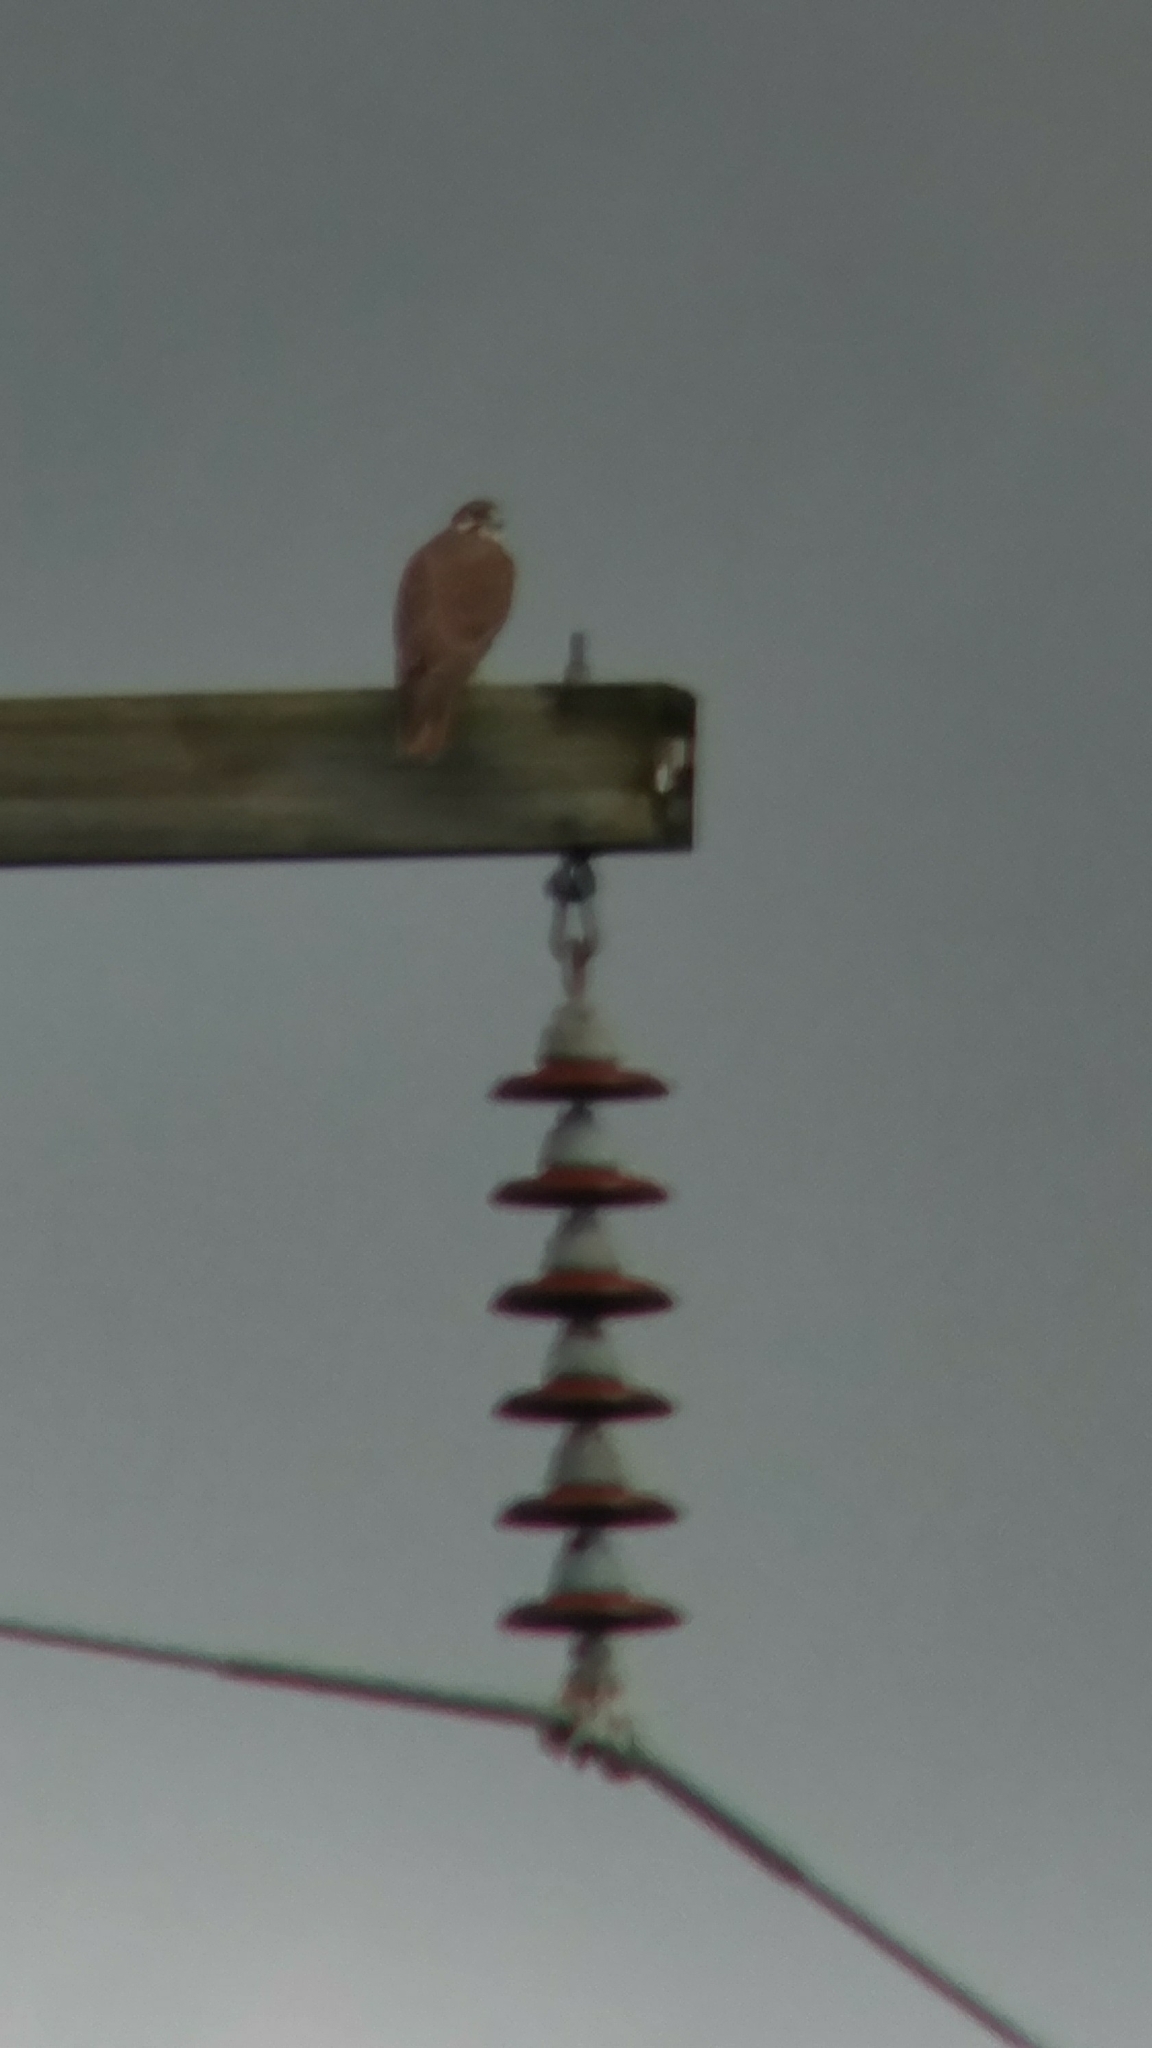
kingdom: Animalia
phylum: Chordata
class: Aves
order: Falconiformes
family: Falconidae
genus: Falco
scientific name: Falco mexicanus
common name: Prairie falcon
